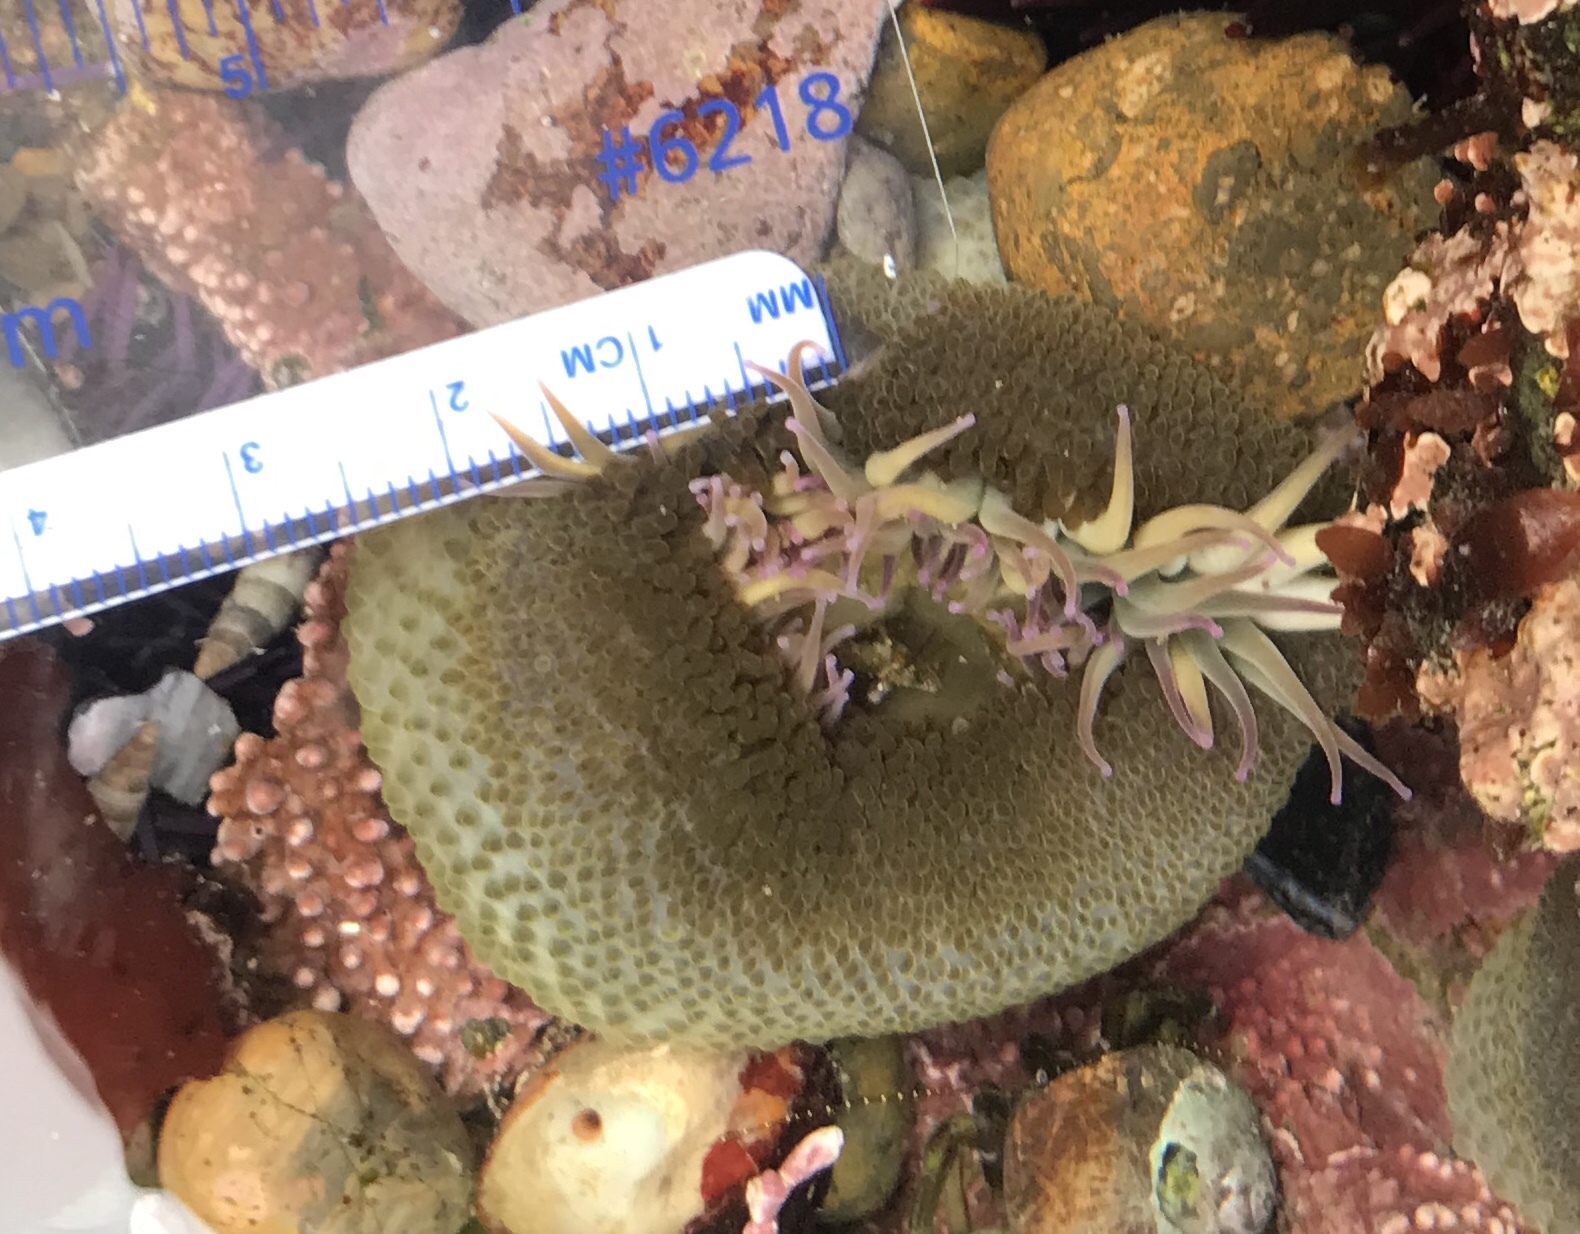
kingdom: Animalia
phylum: Cnidaria
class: Anthozoa
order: Actiniaria
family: Actiniidae
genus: Anthopleura
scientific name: Anthopleura elegantissima
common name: Clonal anemone
